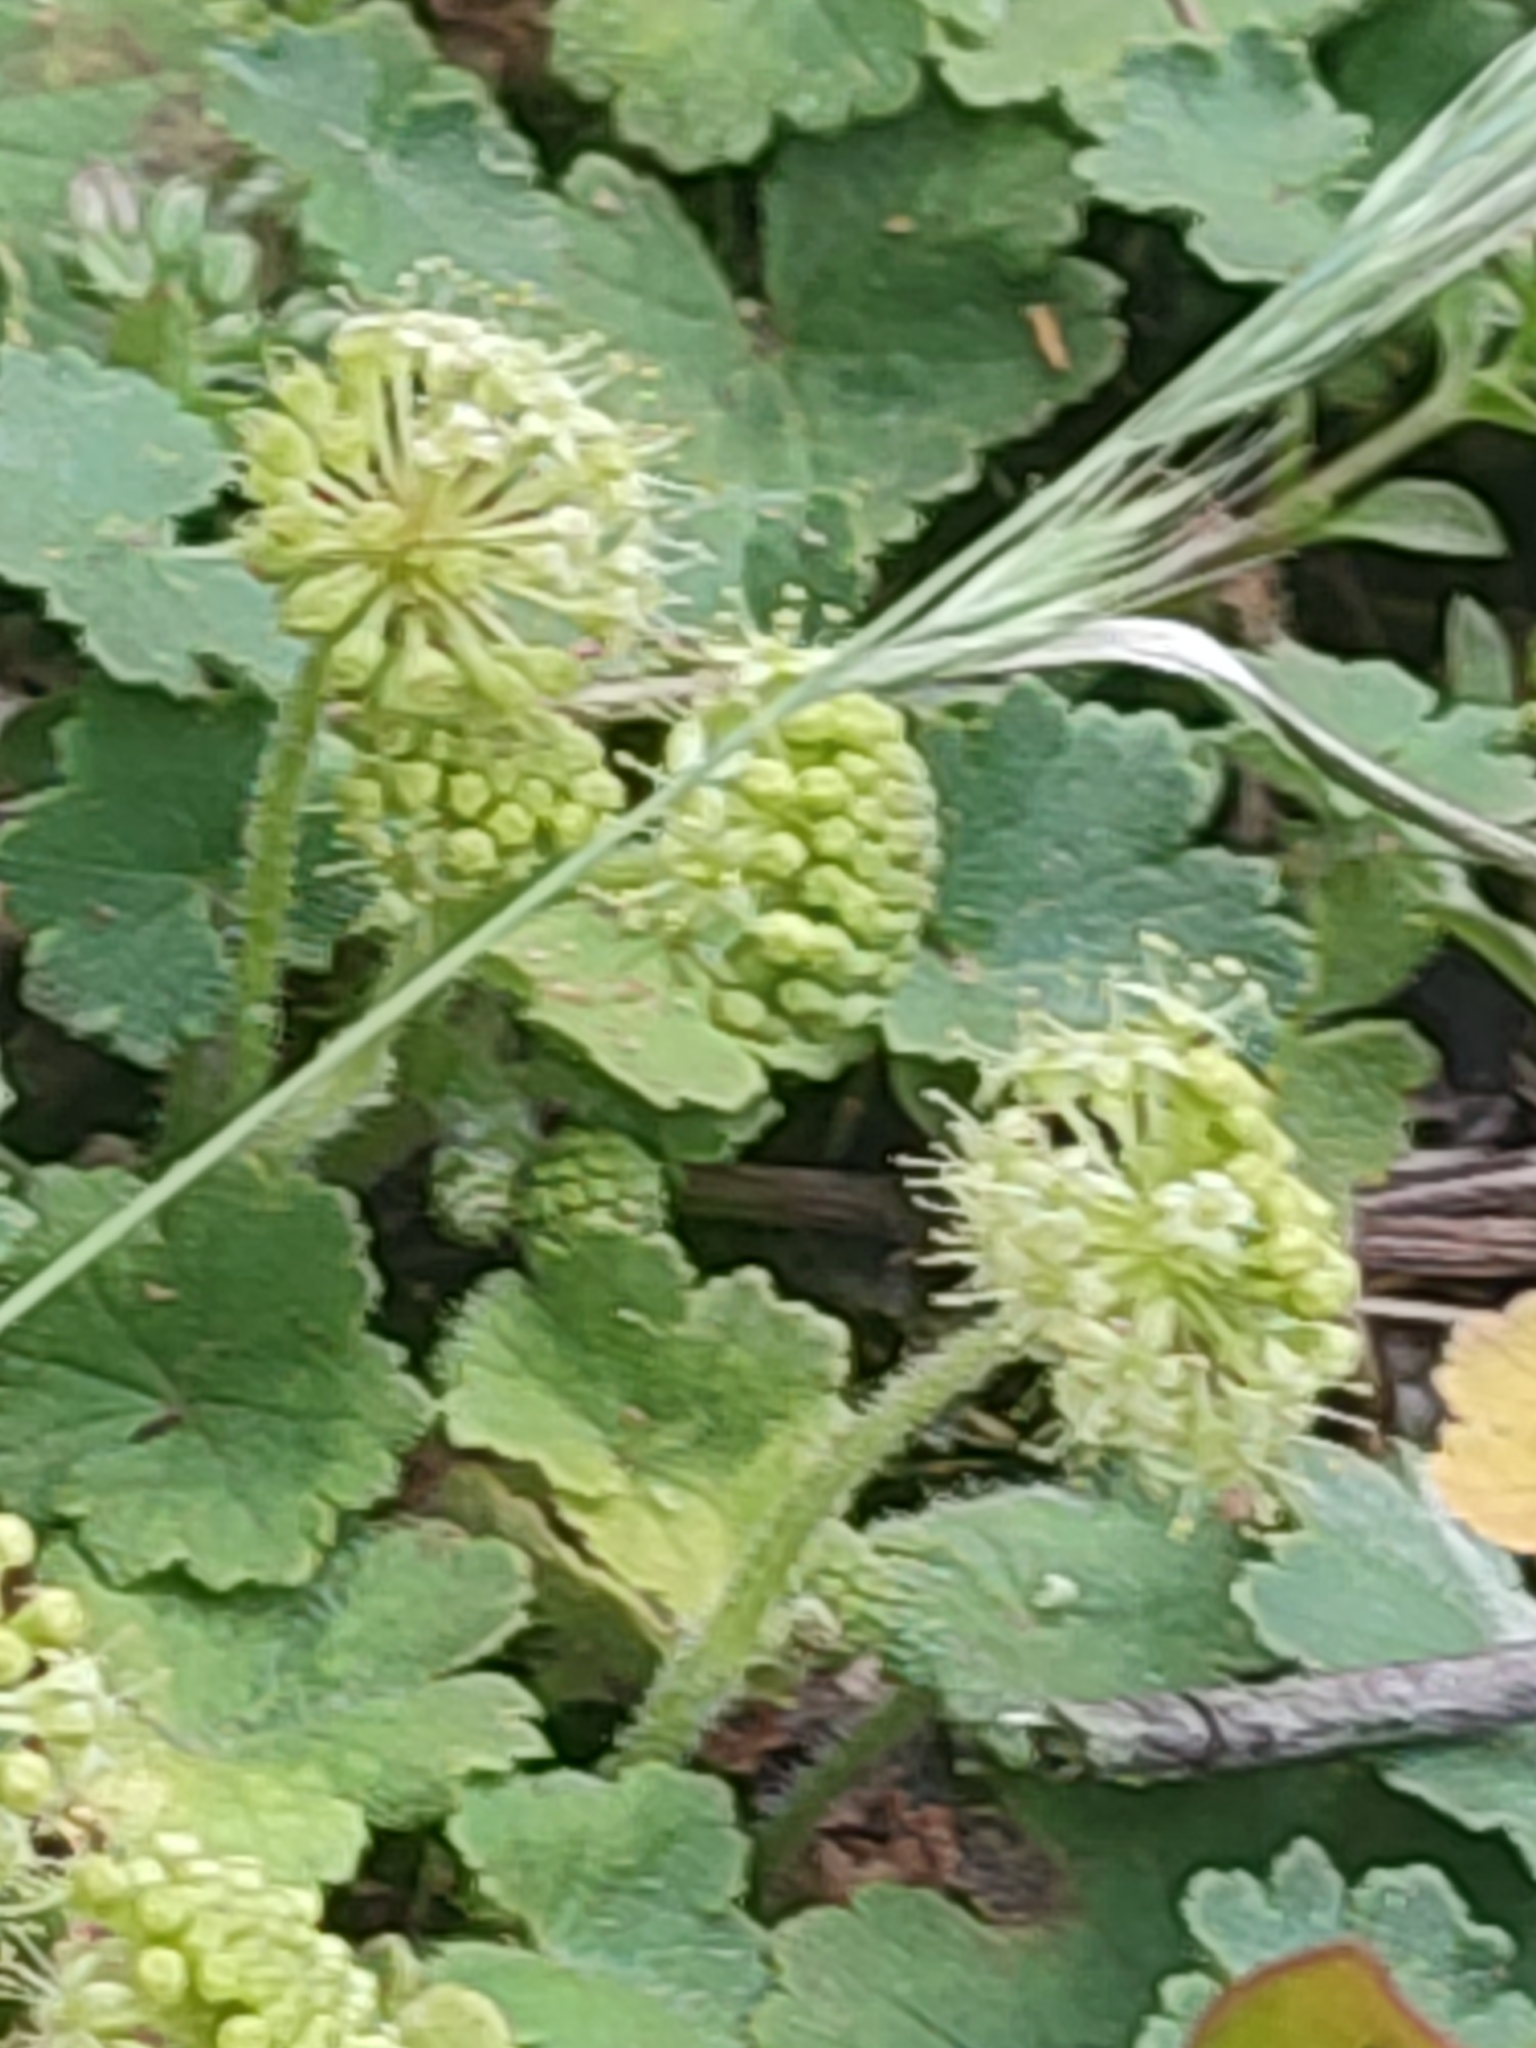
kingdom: Plantae
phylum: Tracheophyta
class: Magnoliopsida
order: Apiales
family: Araliaceae
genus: Hydrocotyle
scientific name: Hydrocotyle laxiflora
